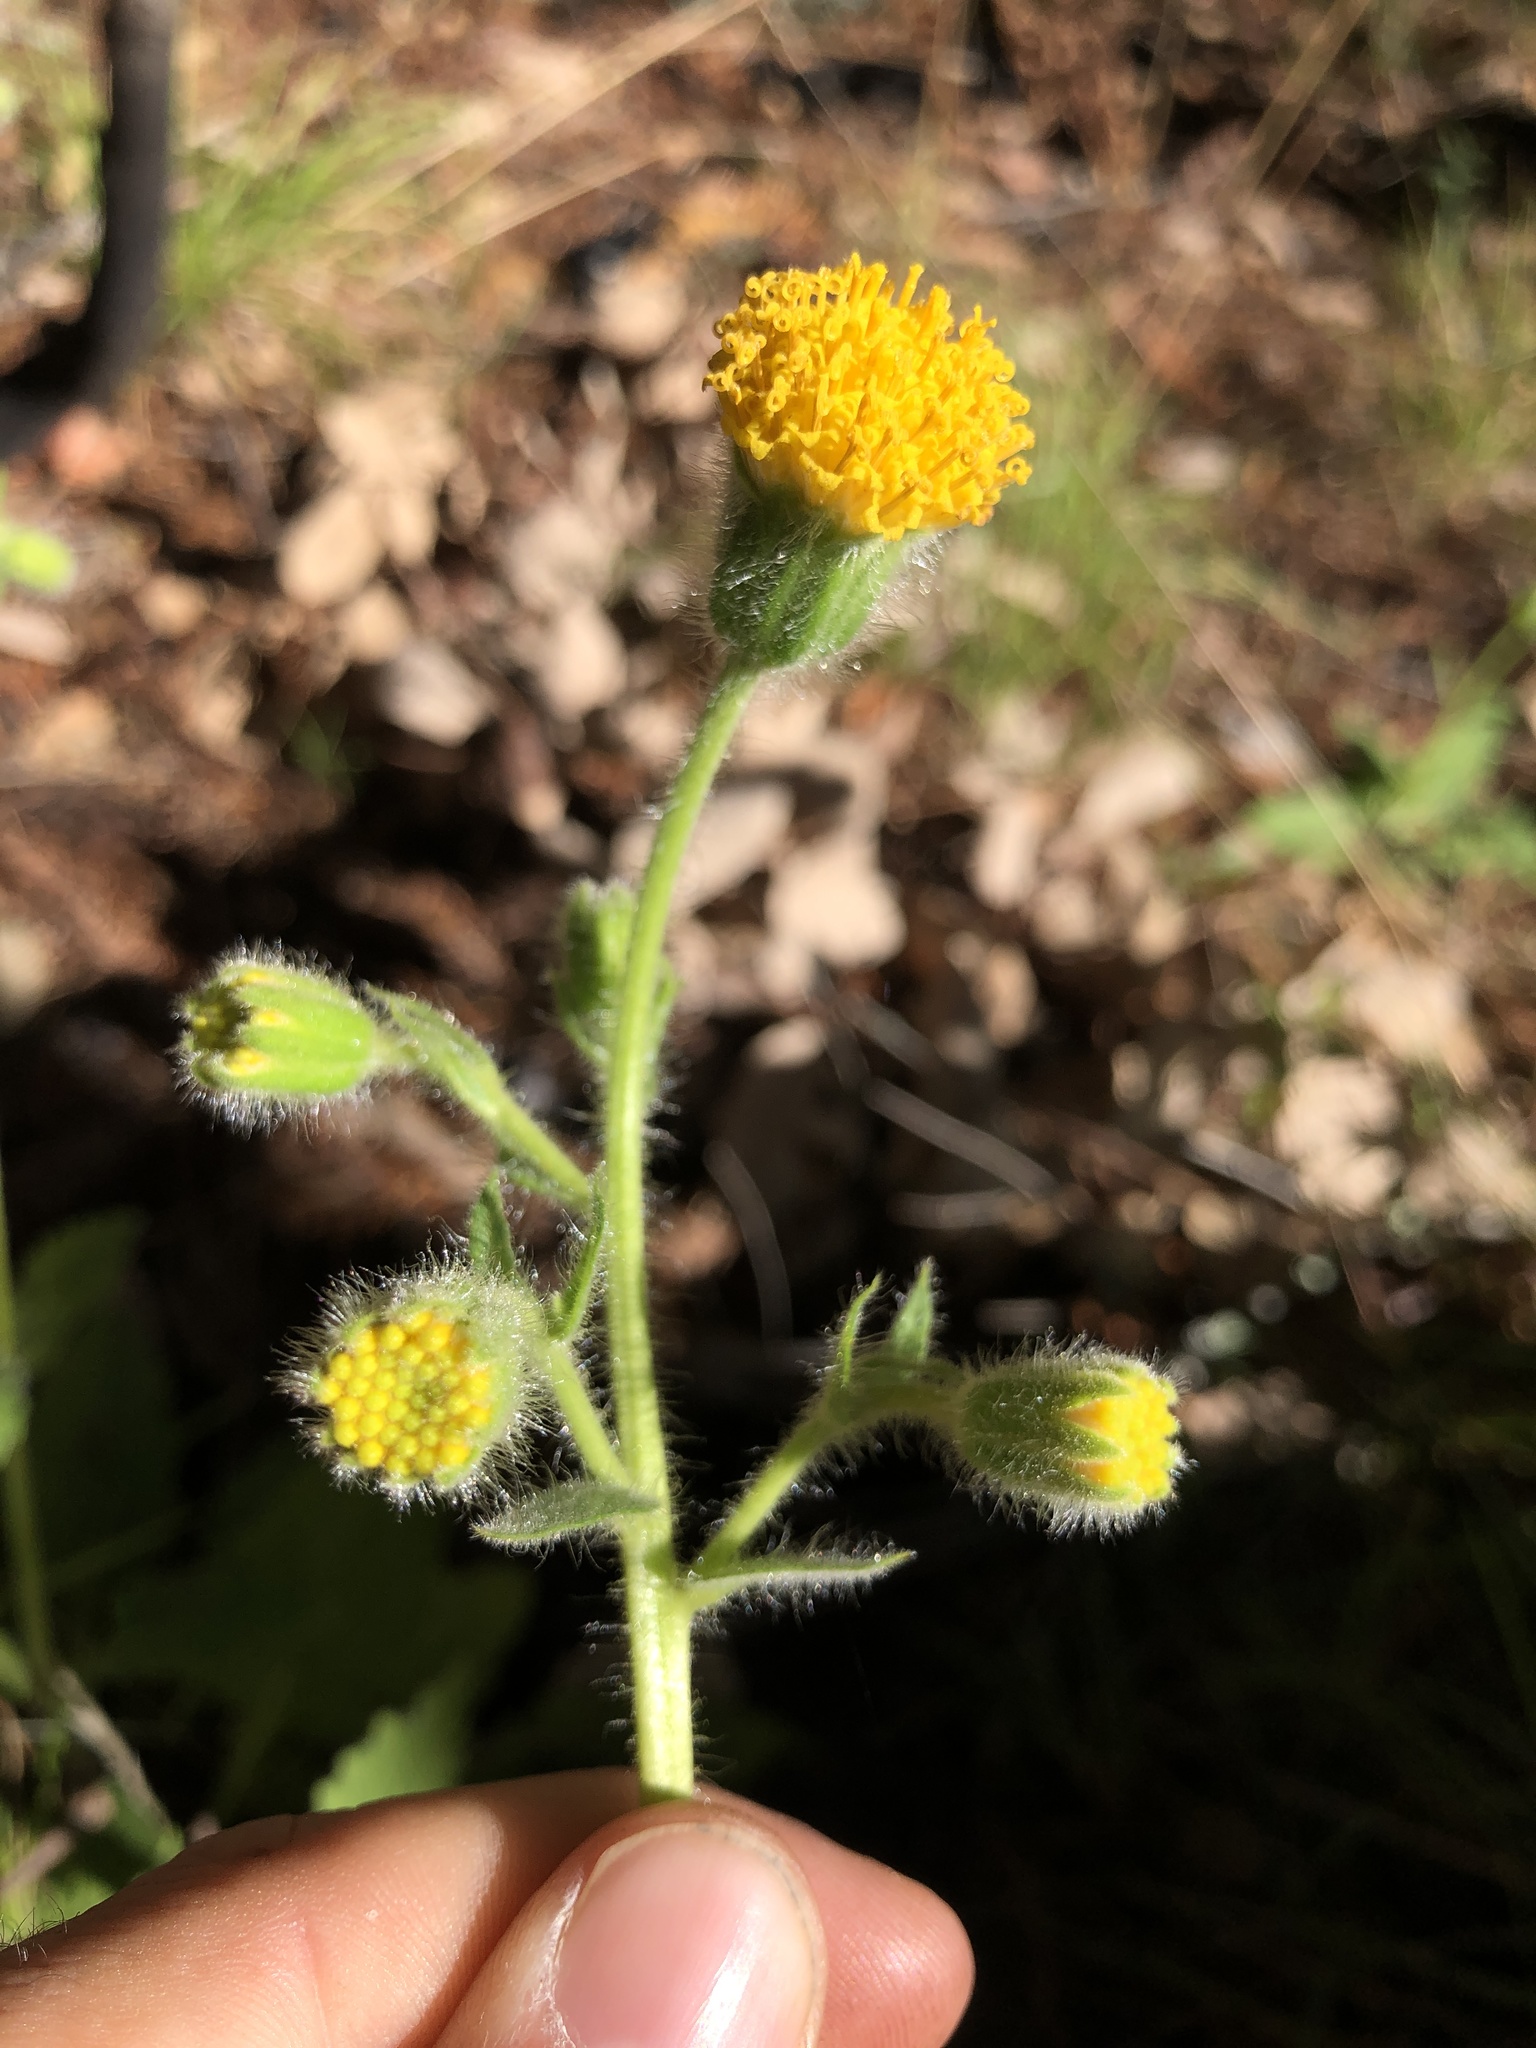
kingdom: Plantae
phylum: Tracheophyta
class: Magnoliopsida
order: Asterales
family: Asteraceae
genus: Arnica
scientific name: Arnica discoidea
